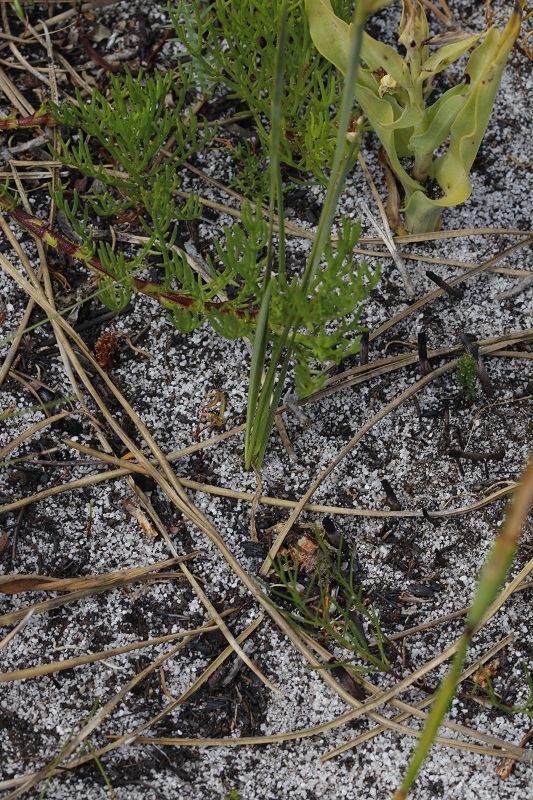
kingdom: Plantae
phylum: Tracheophyta
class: Liliopsida
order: Asparagales
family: Iridaceae
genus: Moraea
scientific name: Moraea lewisiae
